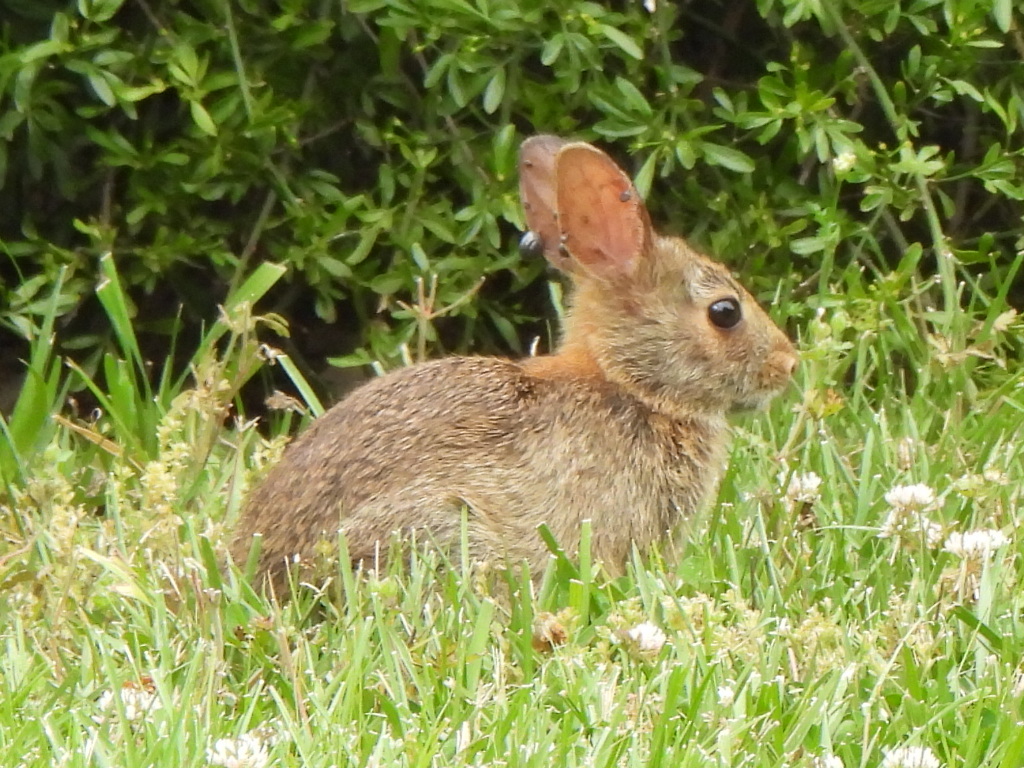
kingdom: Animalia
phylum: Chordata
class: Mammalia
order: Lagomorpha
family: Leporidae
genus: Sylvilagus
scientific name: Sylvilagus floridanus
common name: Eastern cottontail
